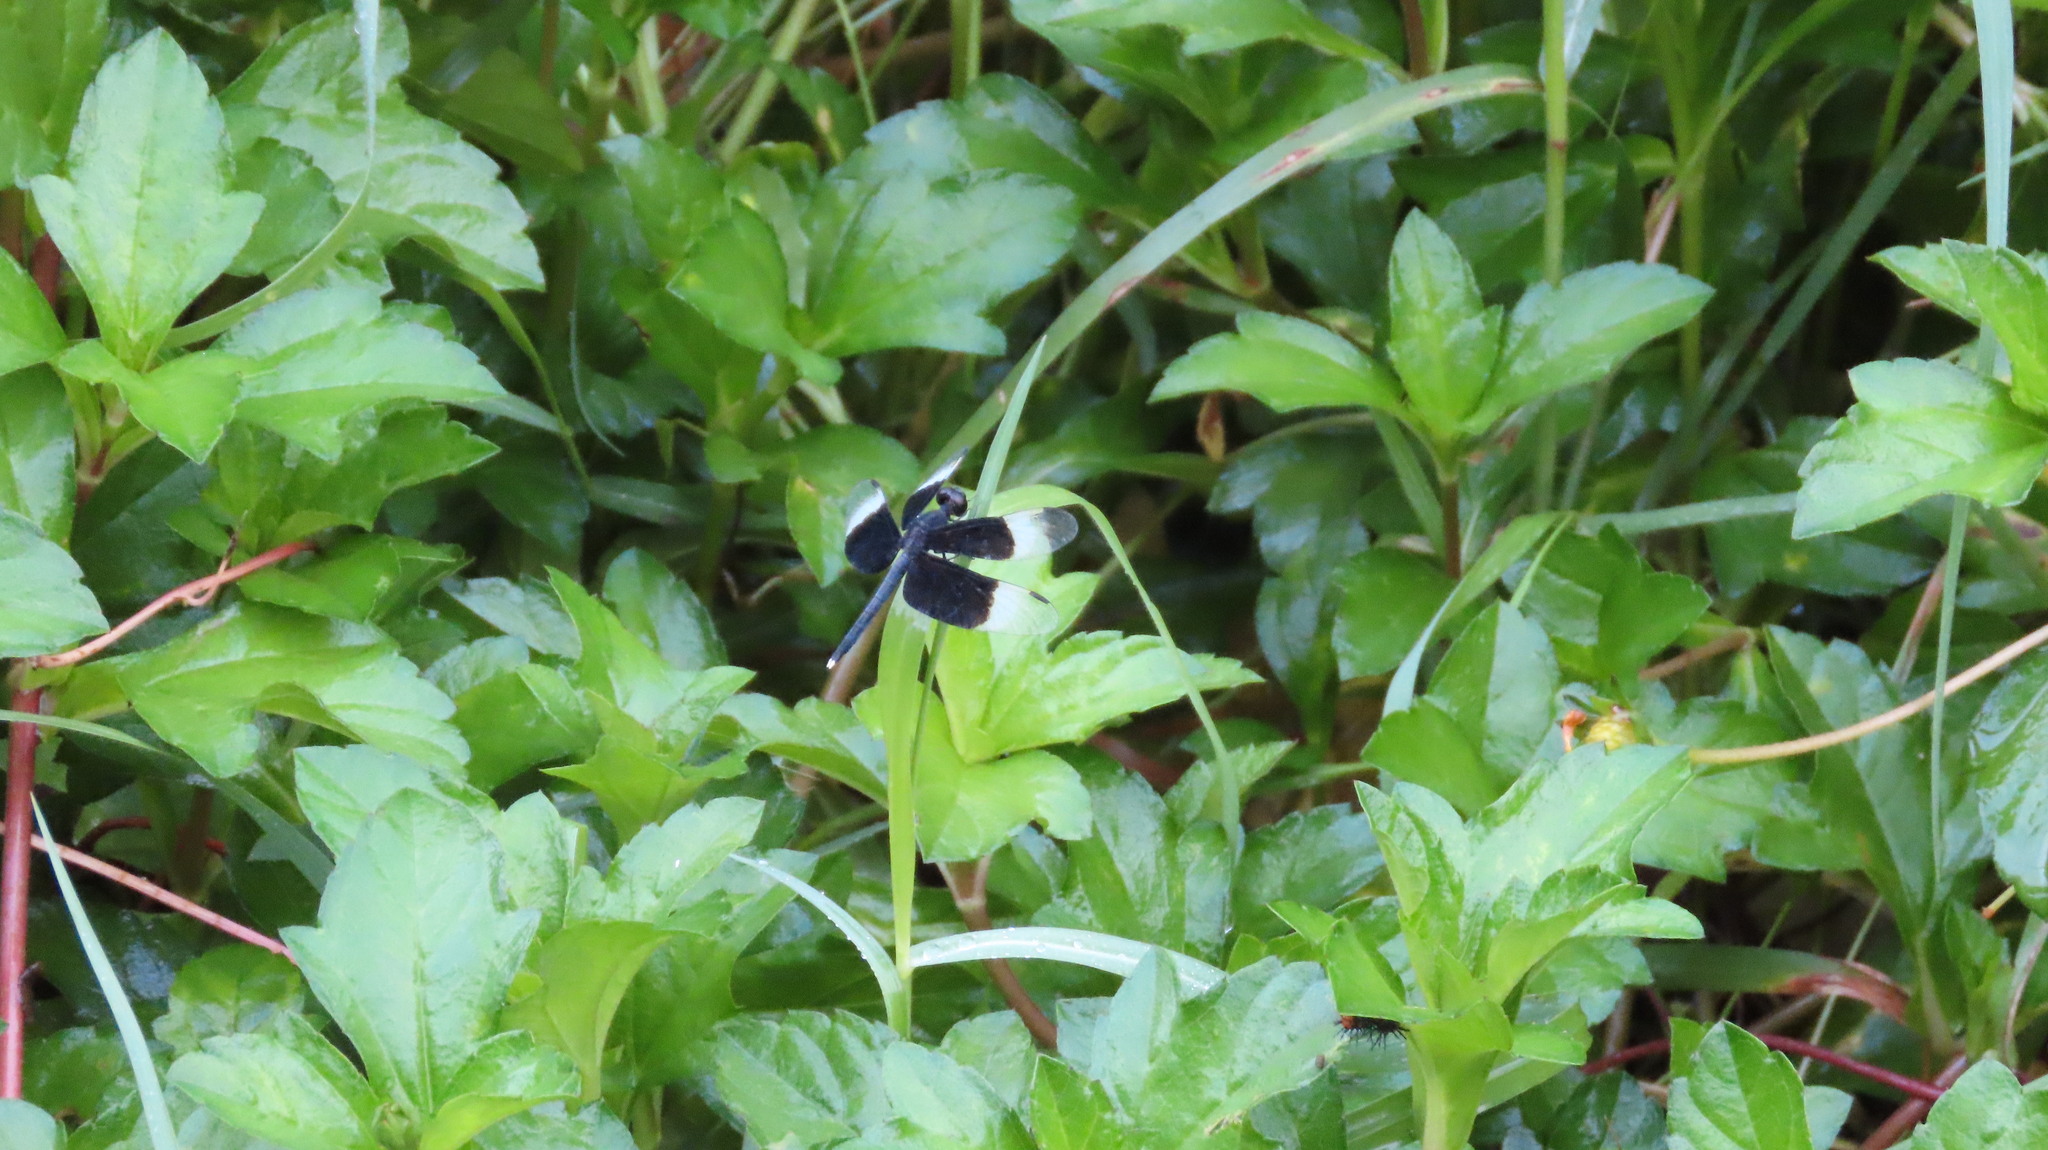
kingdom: Animalia
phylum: Arthropoda
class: Insecta
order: Odonata
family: Libellulidae
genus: Neurothemis
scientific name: Neurothemis tullia
